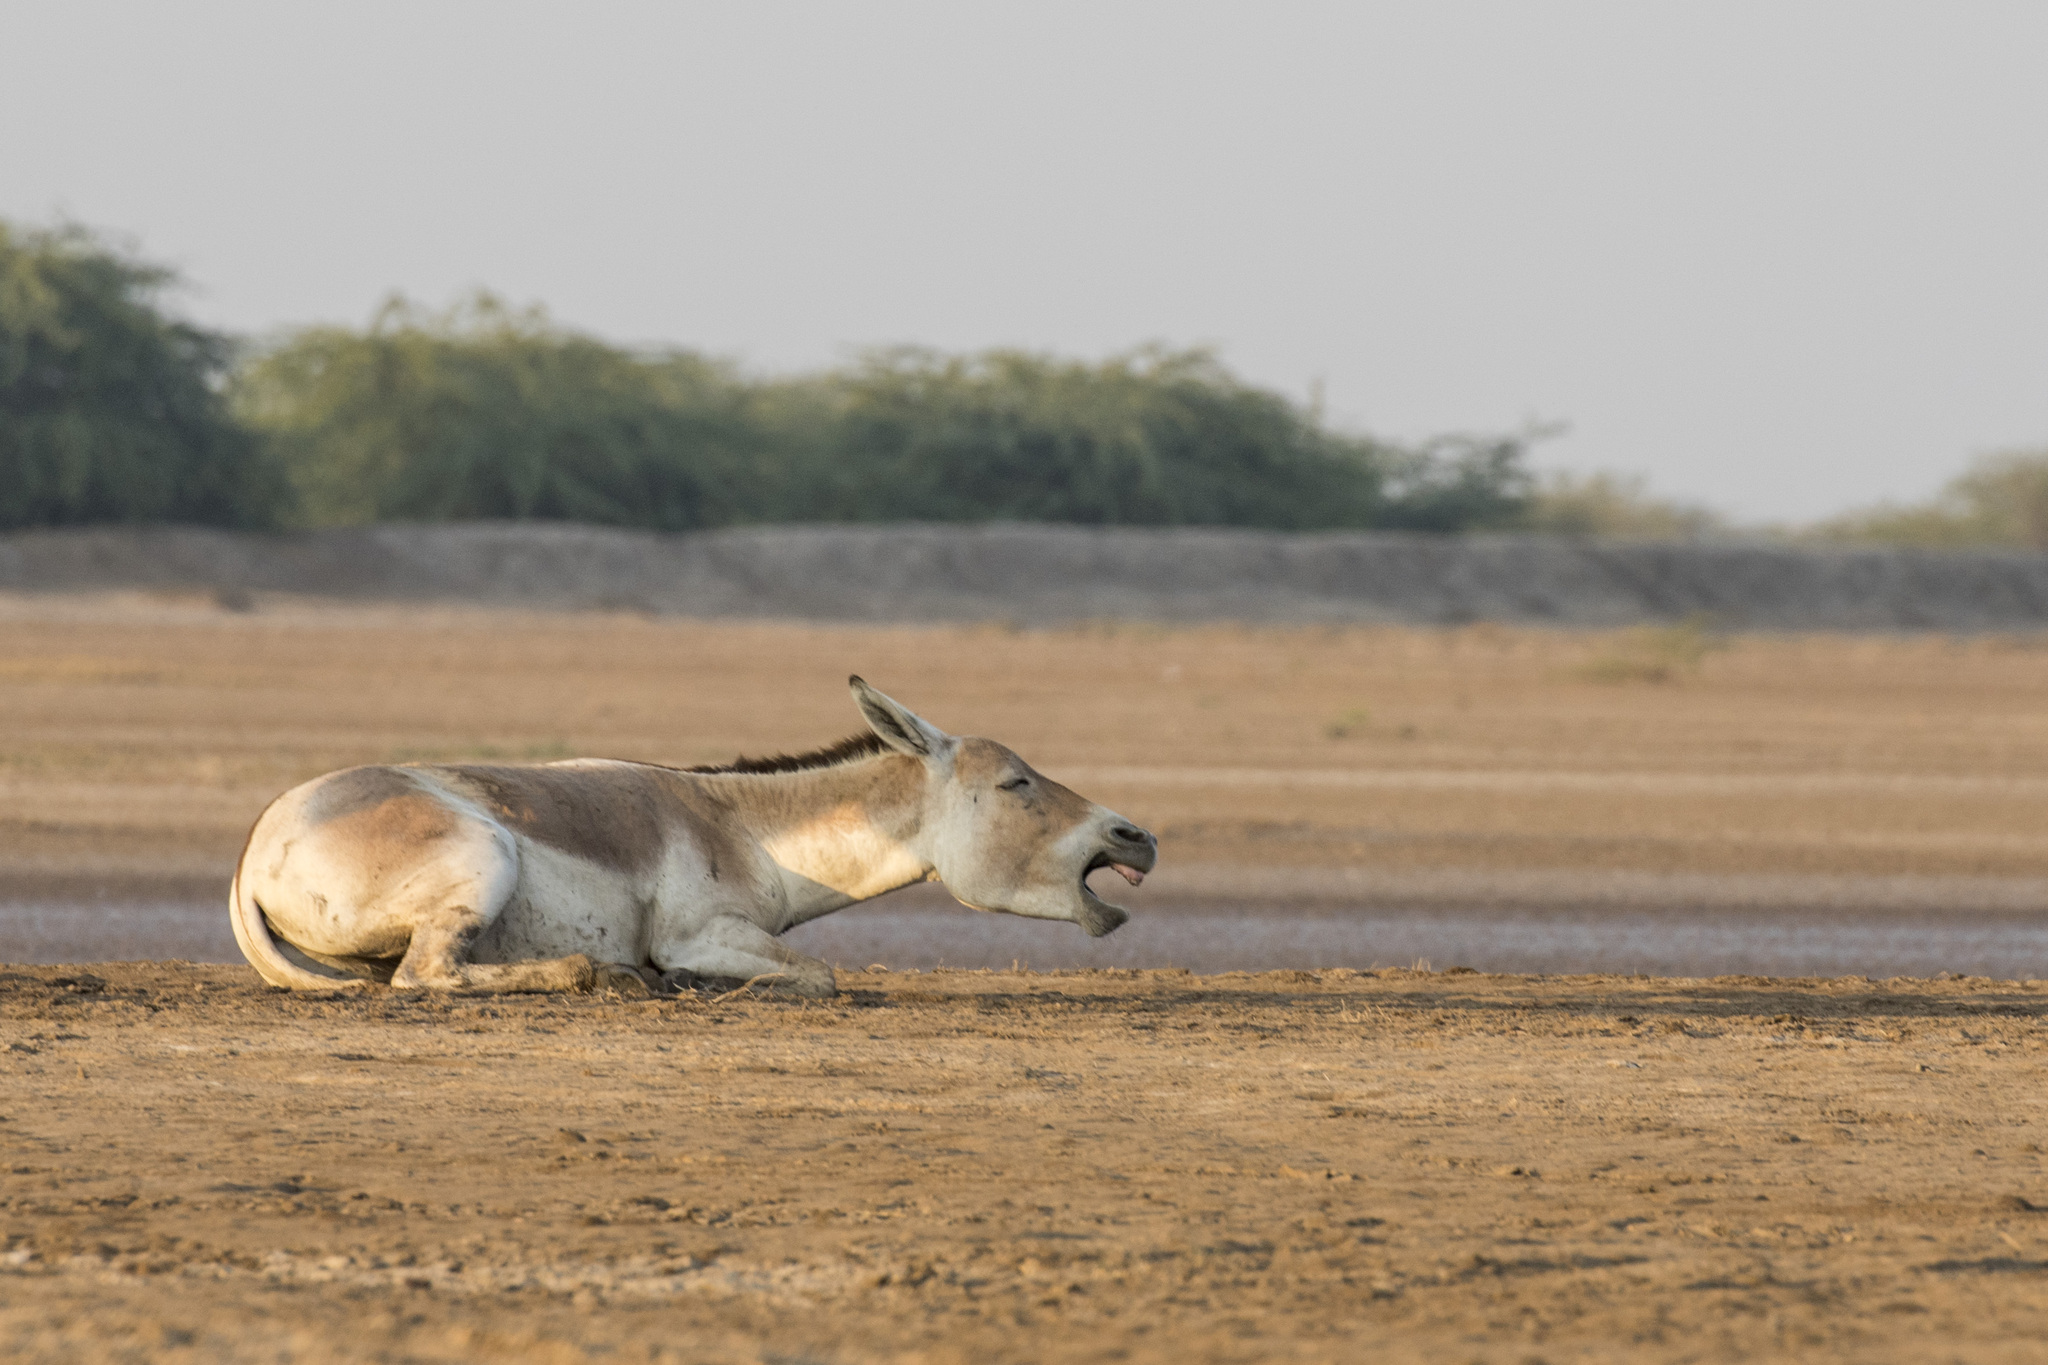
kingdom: Animalia
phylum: Chordata
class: Mammalia
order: Perissodactyla
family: Equidae
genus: Equus
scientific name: Equus khur
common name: Indian wild ass
